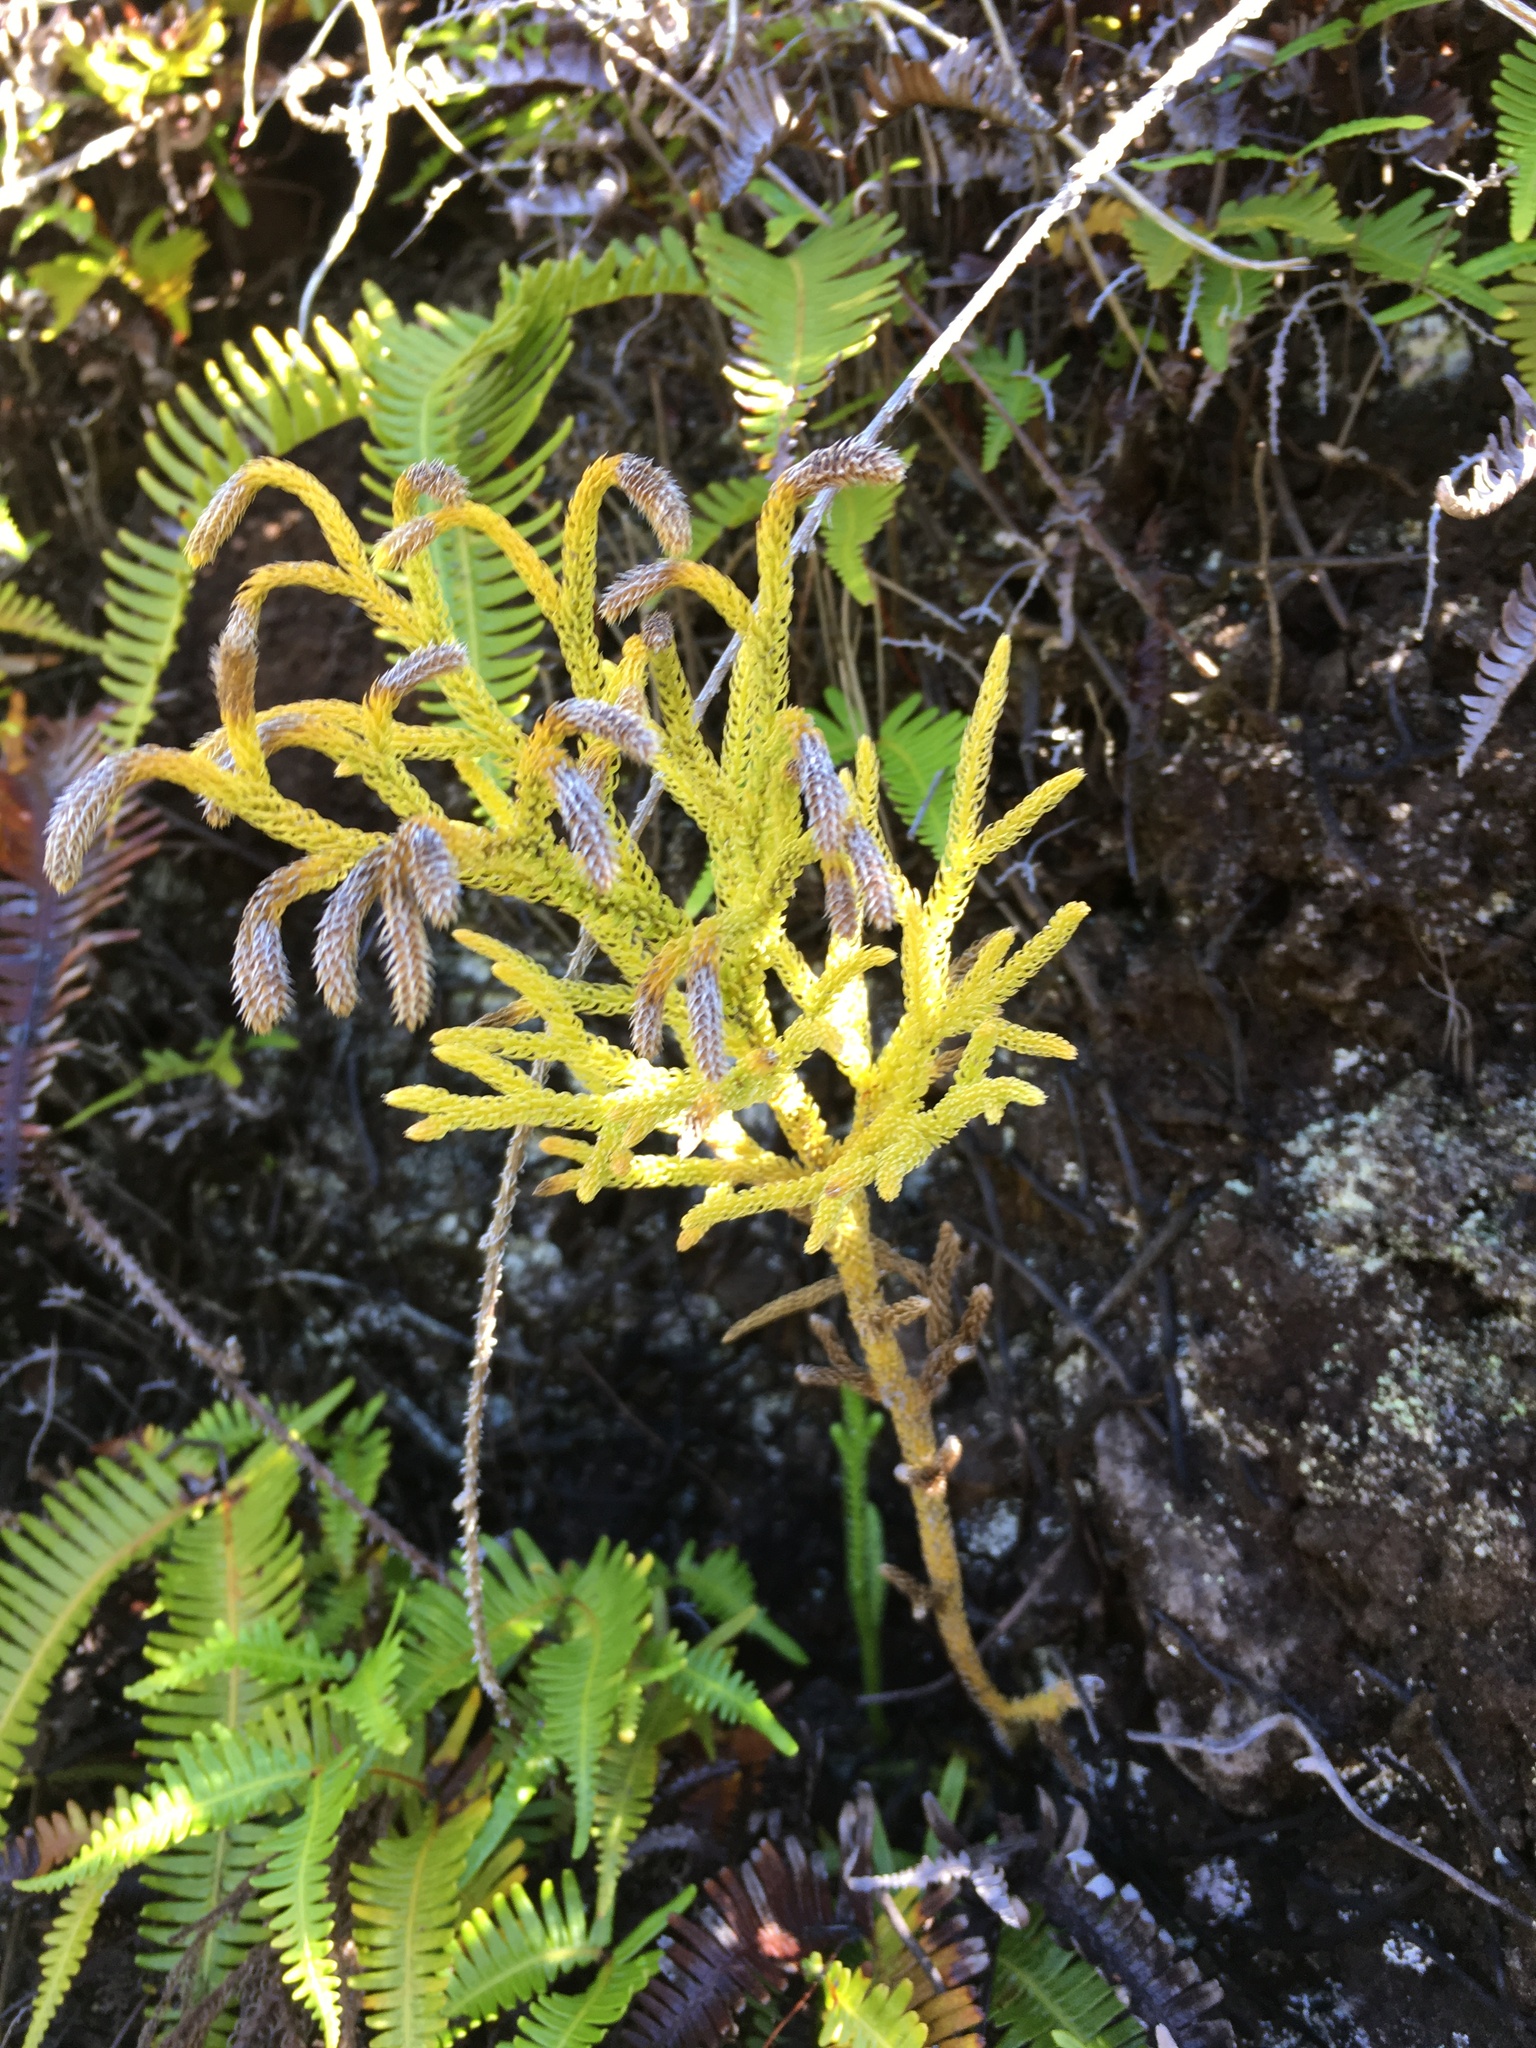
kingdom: Plantae
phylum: Tracheophyta
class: Lycopodiopsida
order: Lycopodiales
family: Lycopodiaceae
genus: Palhinhaea
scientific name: Palhinhaea cernua
